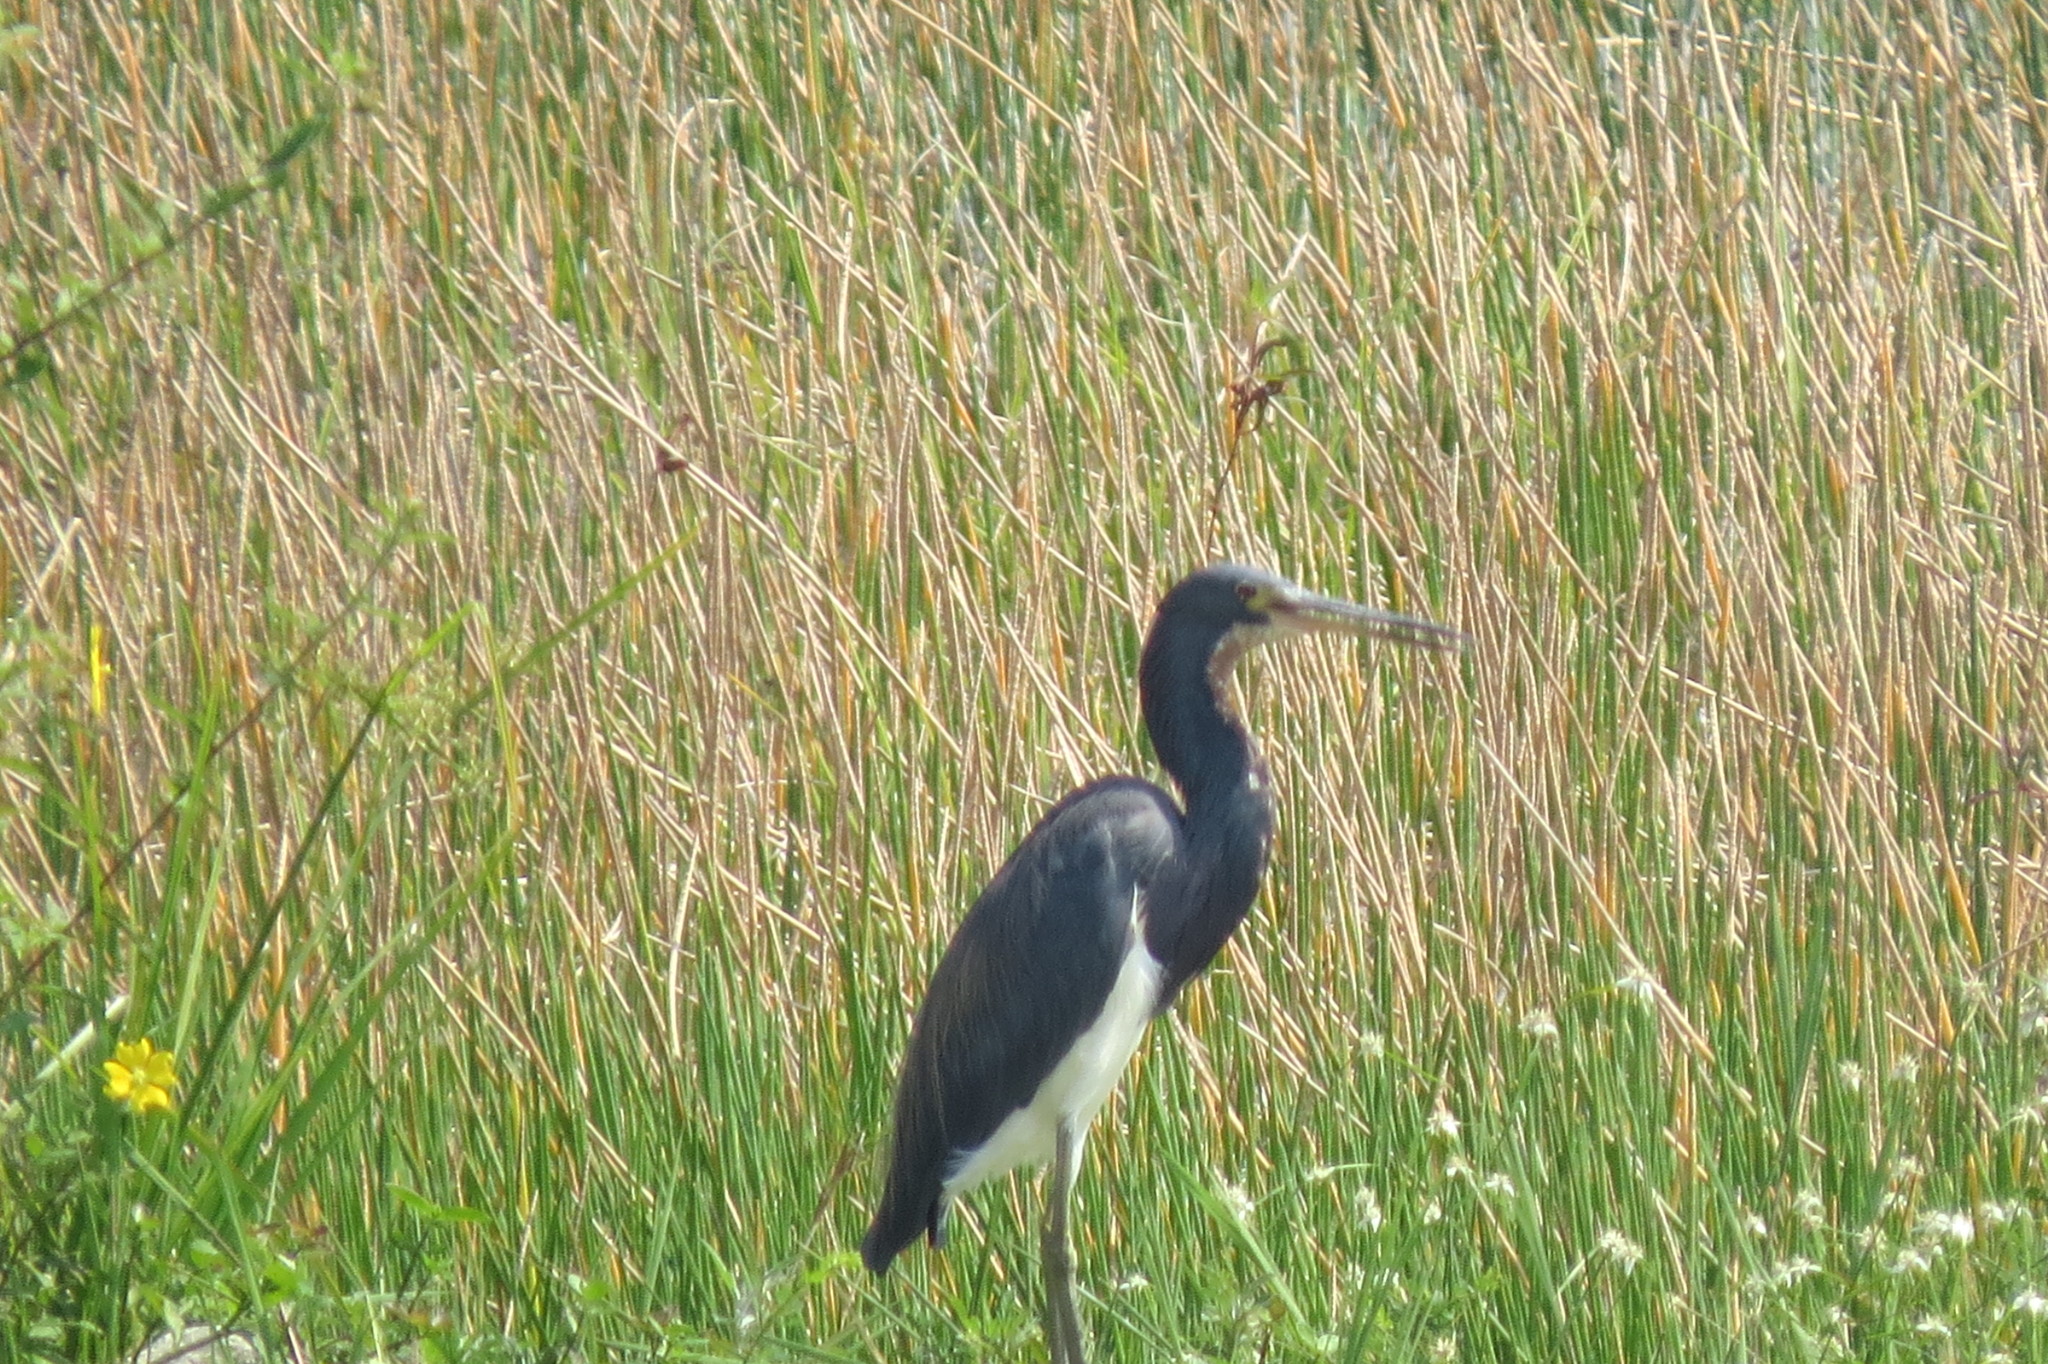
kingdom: Animalia
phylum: Chordata
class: Aves
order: Pelecaniformes
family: Ardeidae
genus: Egretta
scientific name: Egretta tricolor
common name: Tricolored heron
